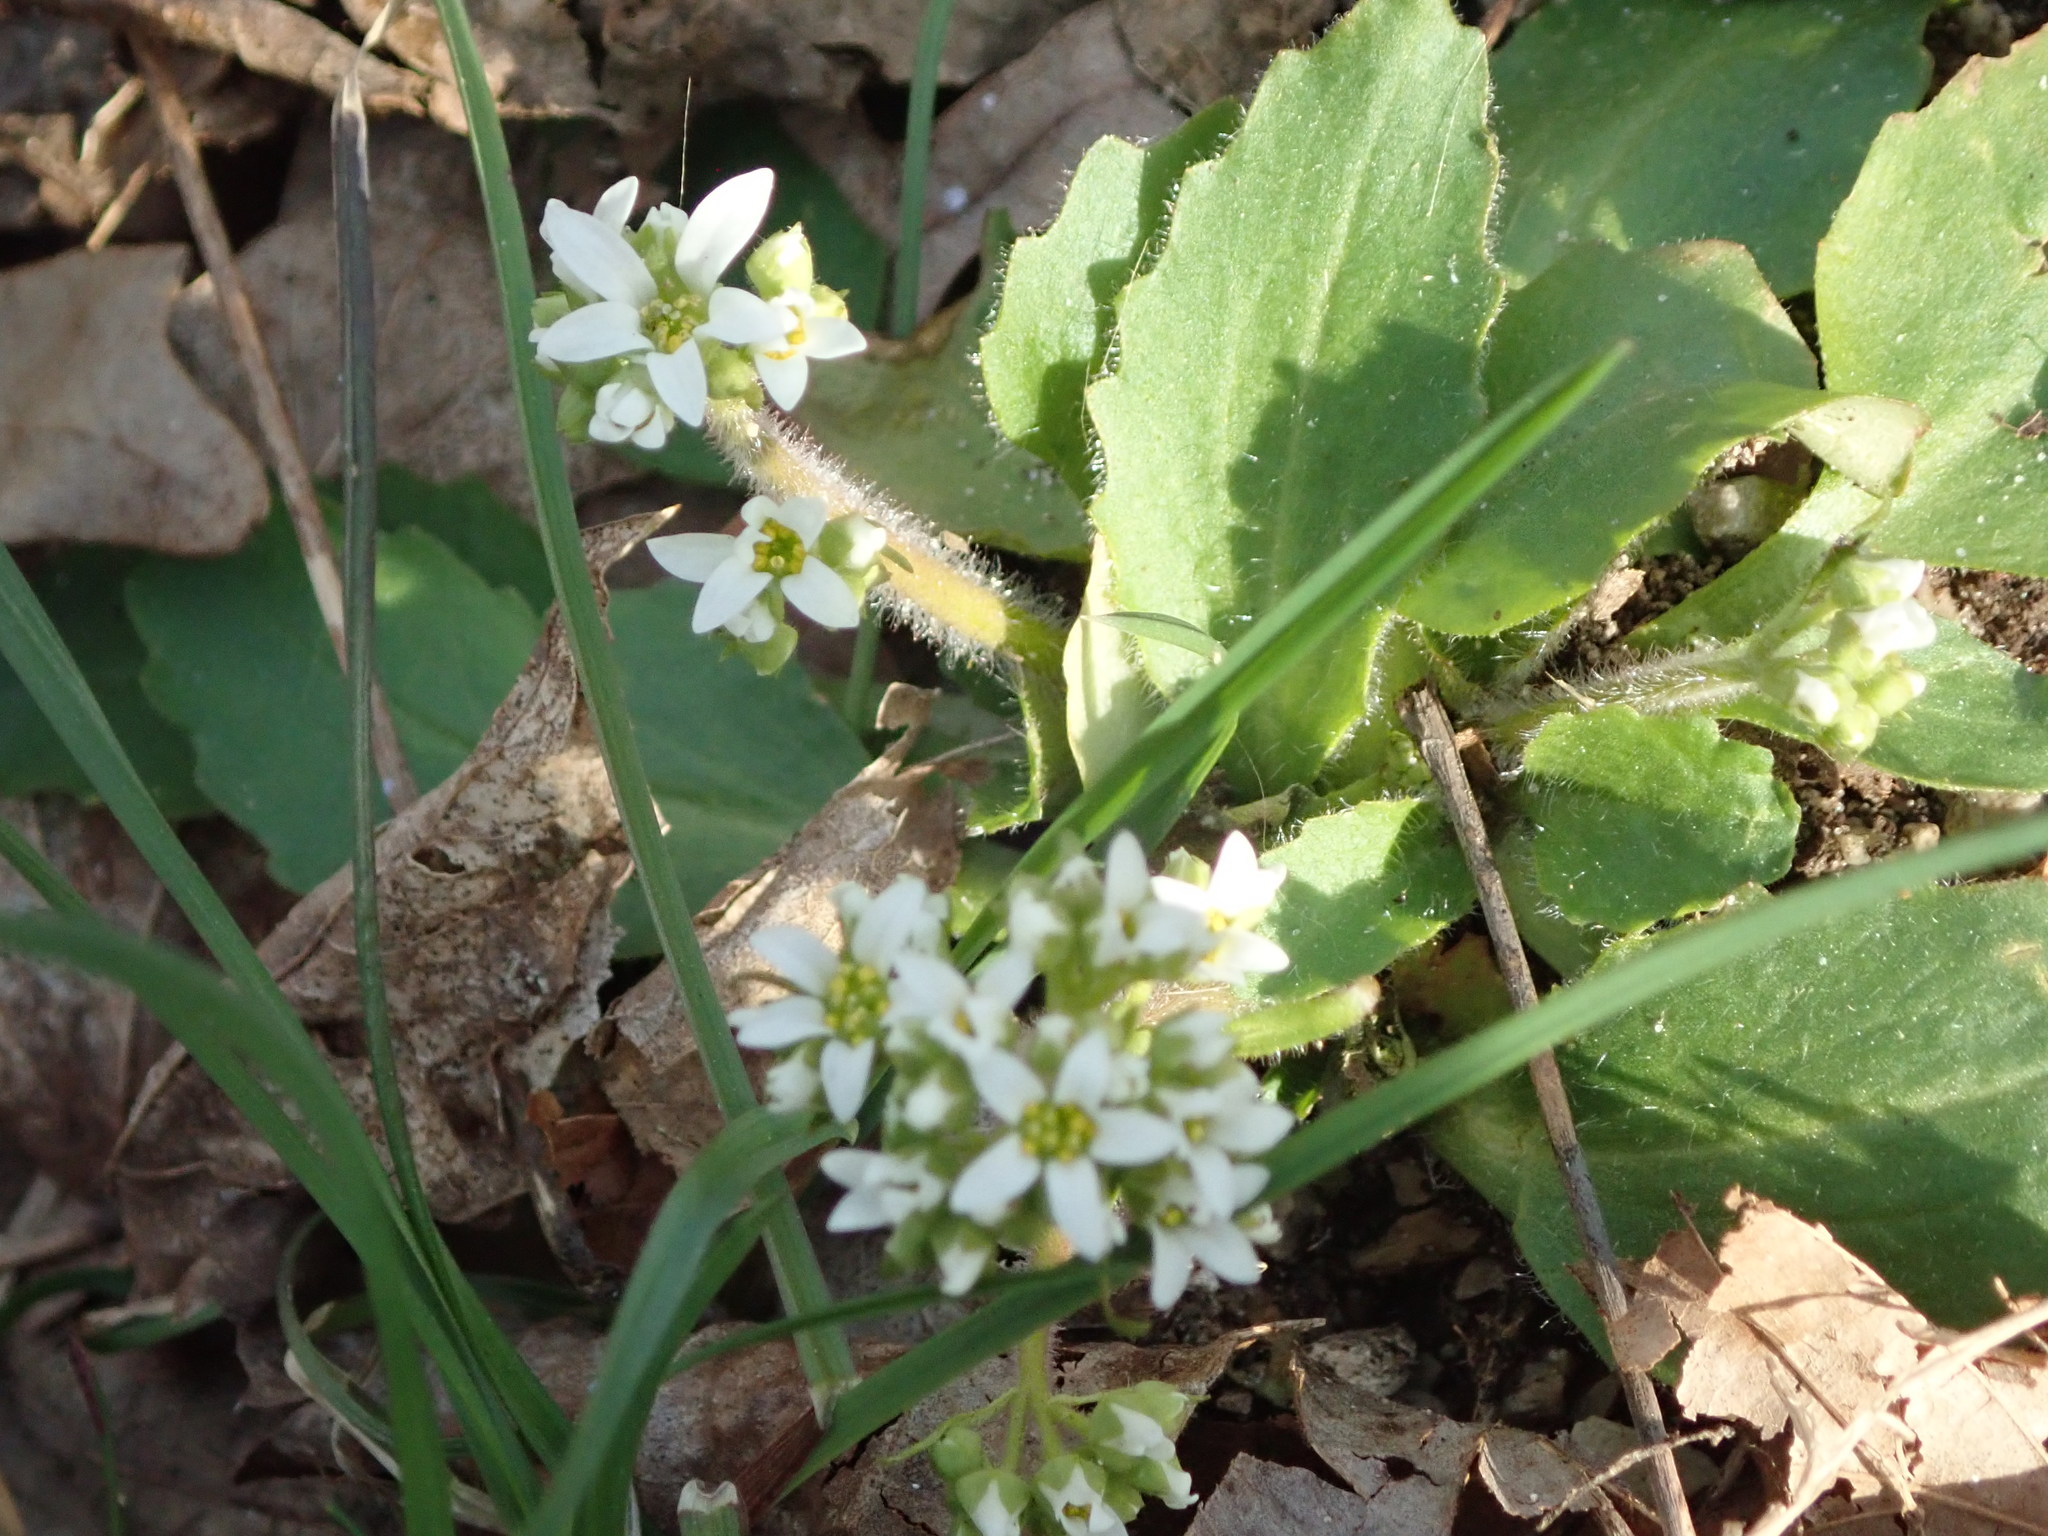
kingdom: Plantae
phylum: Tracheophyta
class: Magnoliopsida
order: Saxifragales
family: Saxifragaceae
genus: Micranthes
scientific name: Micranthes virginiensis
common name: Early saxifrage
